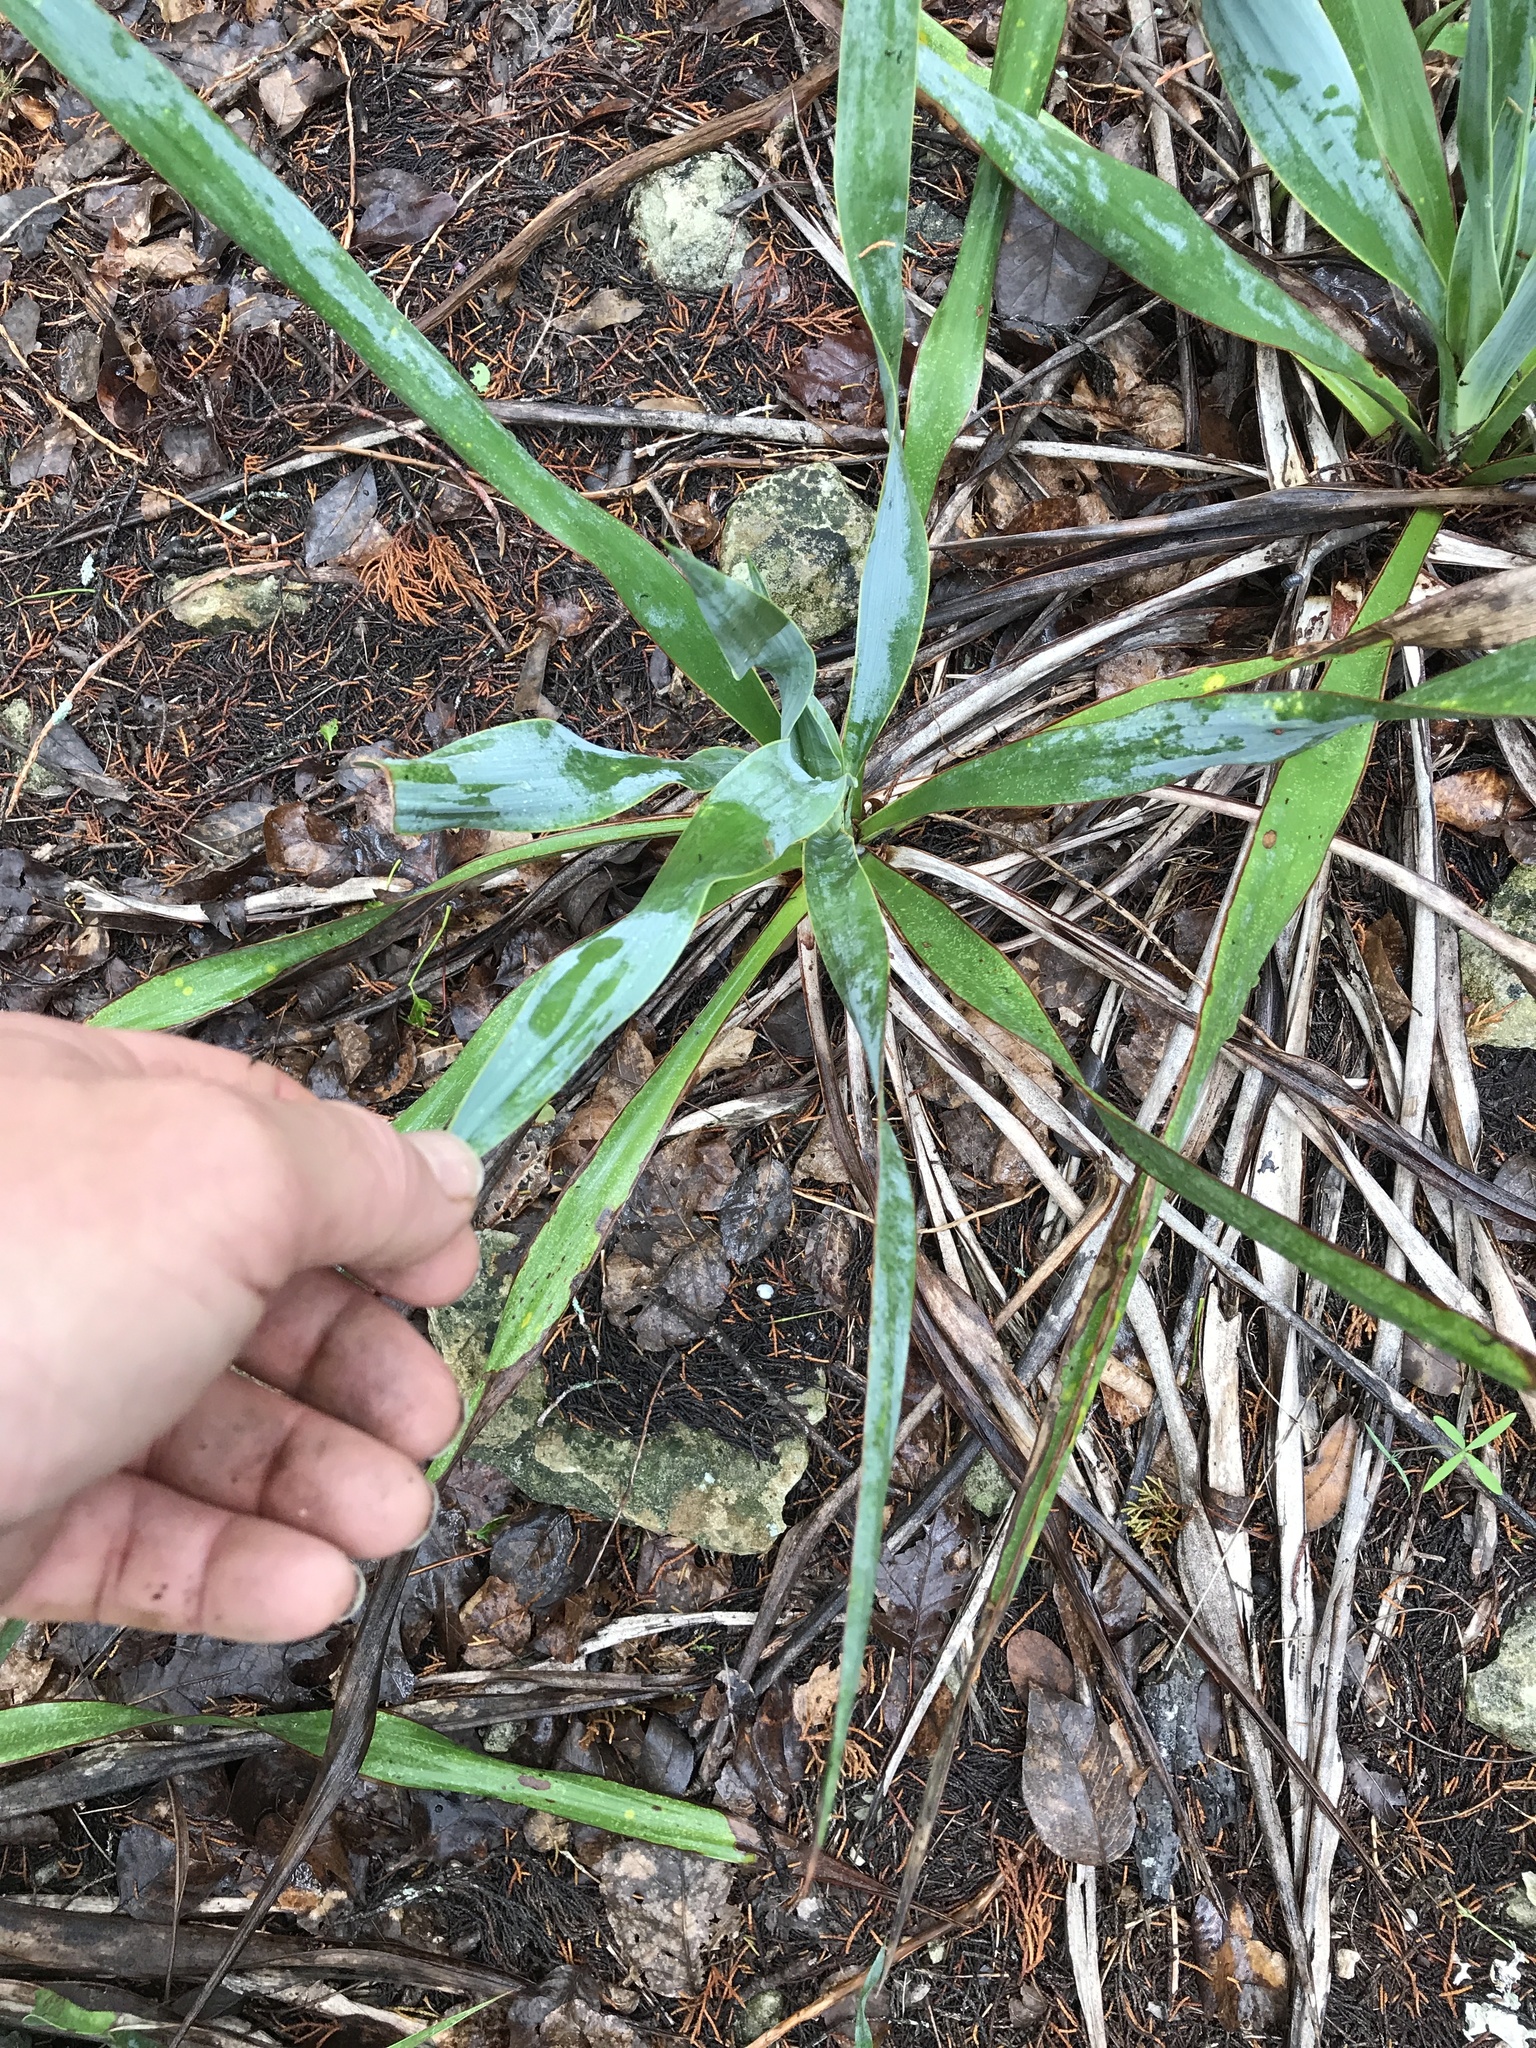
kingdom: Plantae
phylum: Tracheophyta
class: Liliopsida
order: Asparagales
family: Asparagaceae
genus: Yucca
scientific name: Yucca rupicola
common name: Twisted-leaf spanish-dagger
